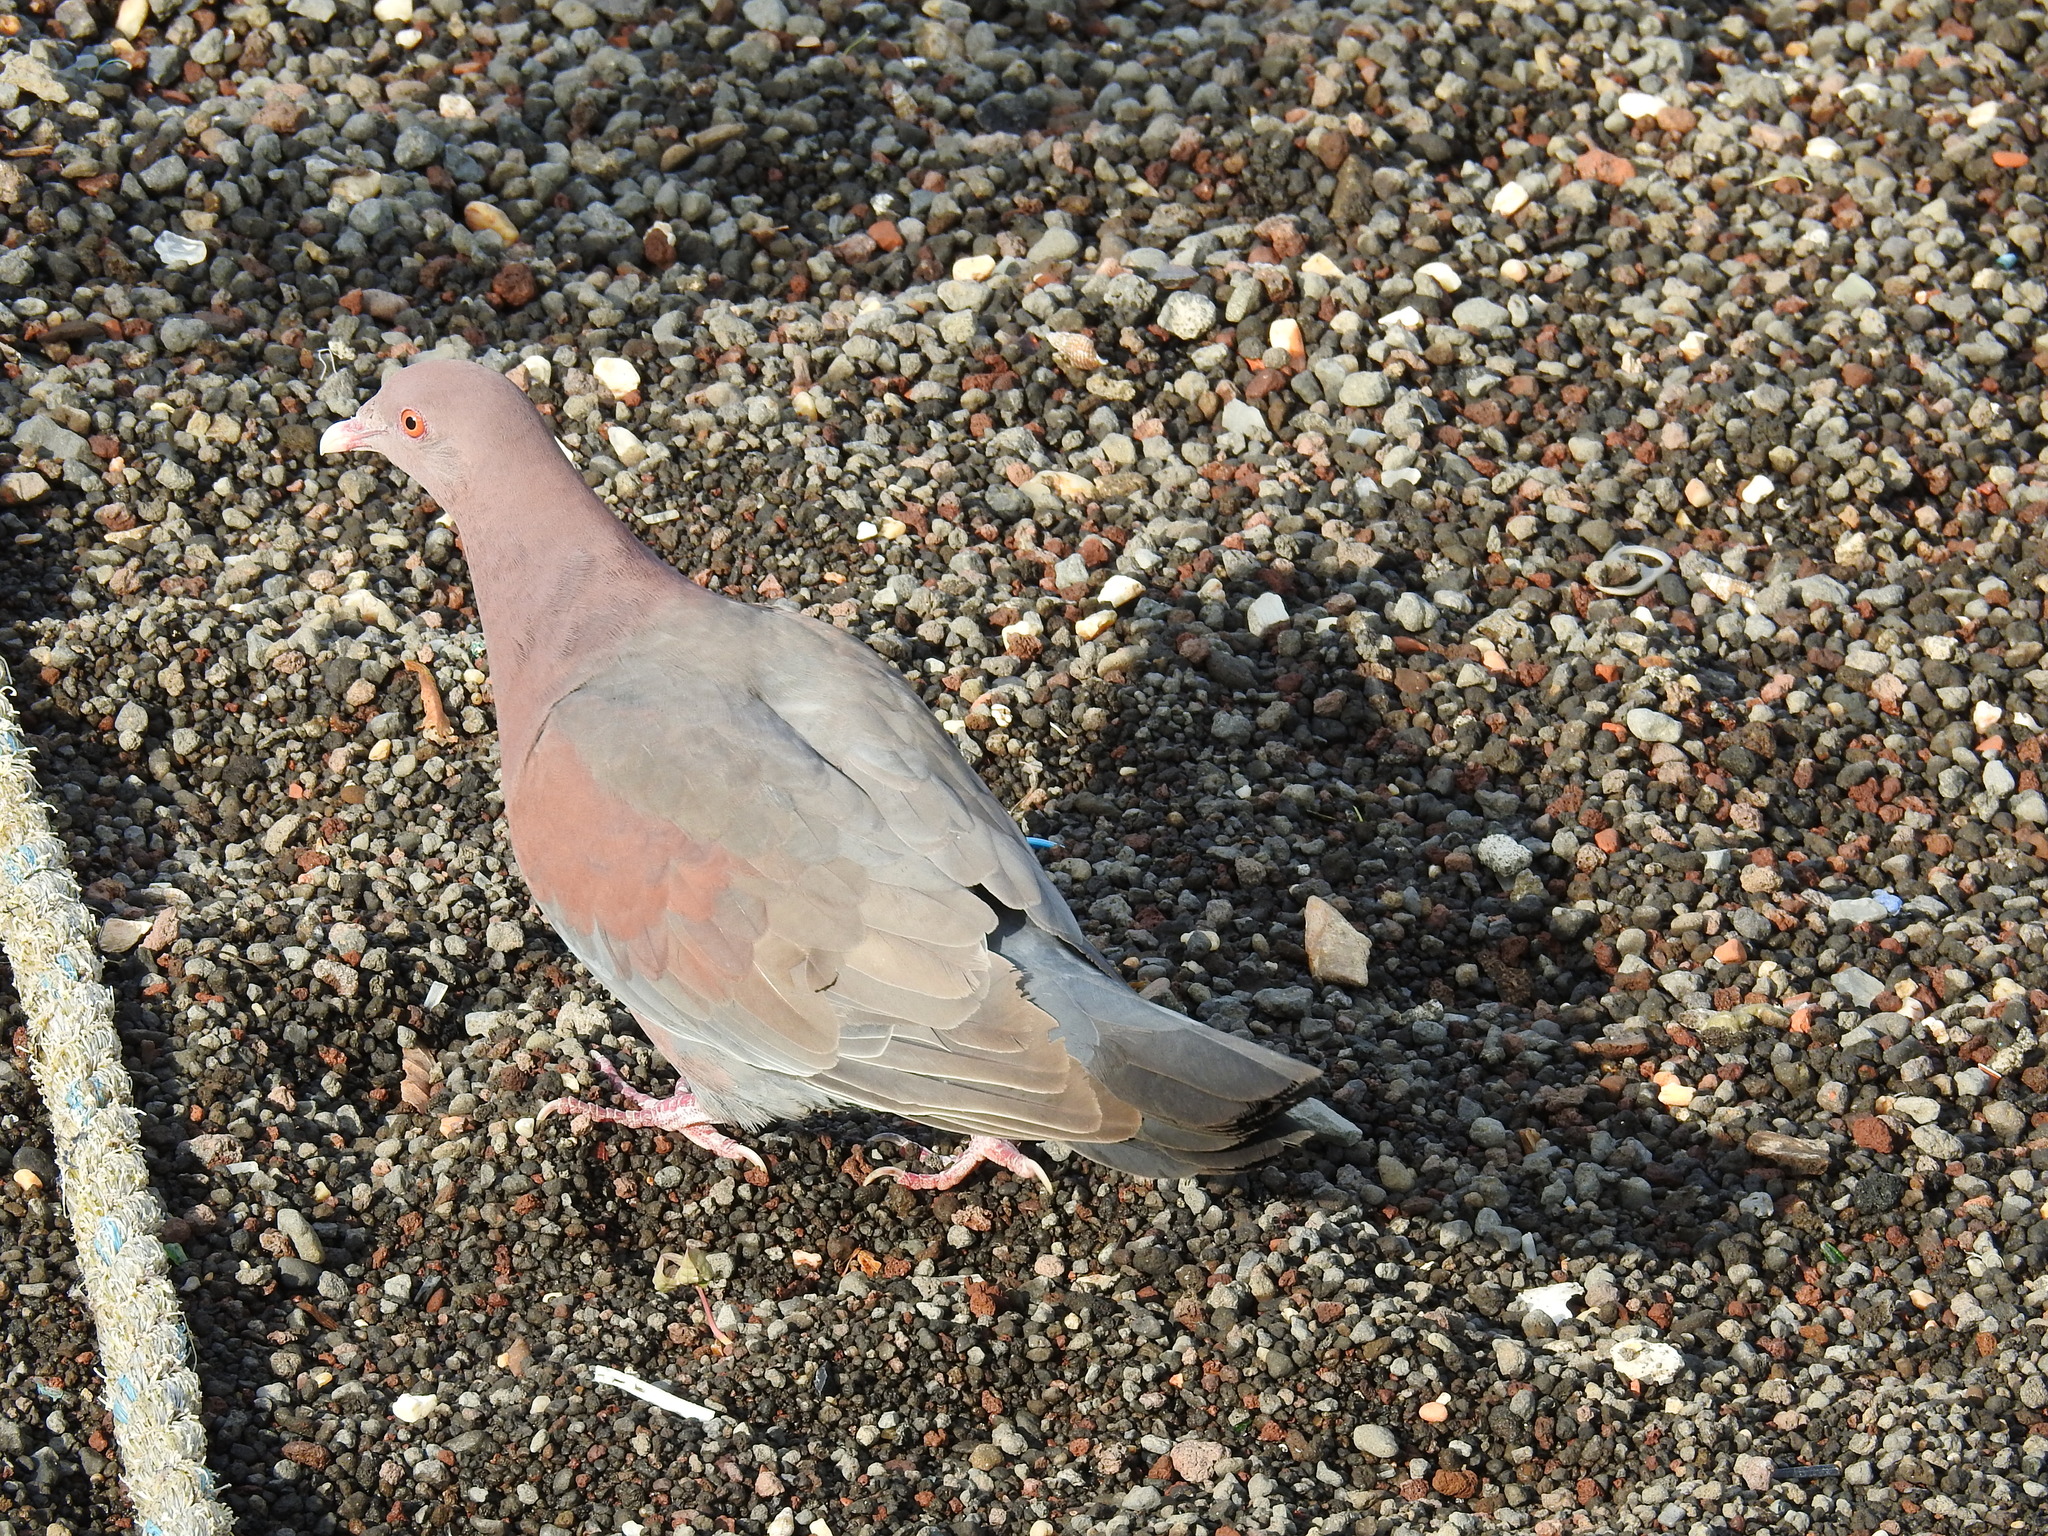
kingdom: Animalia
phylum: Chordata
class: Aves
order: Columbiformes
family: Columbidae
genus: Patagioenas
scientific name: Patagioenas flavirostris
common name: Red-billed pigeon
